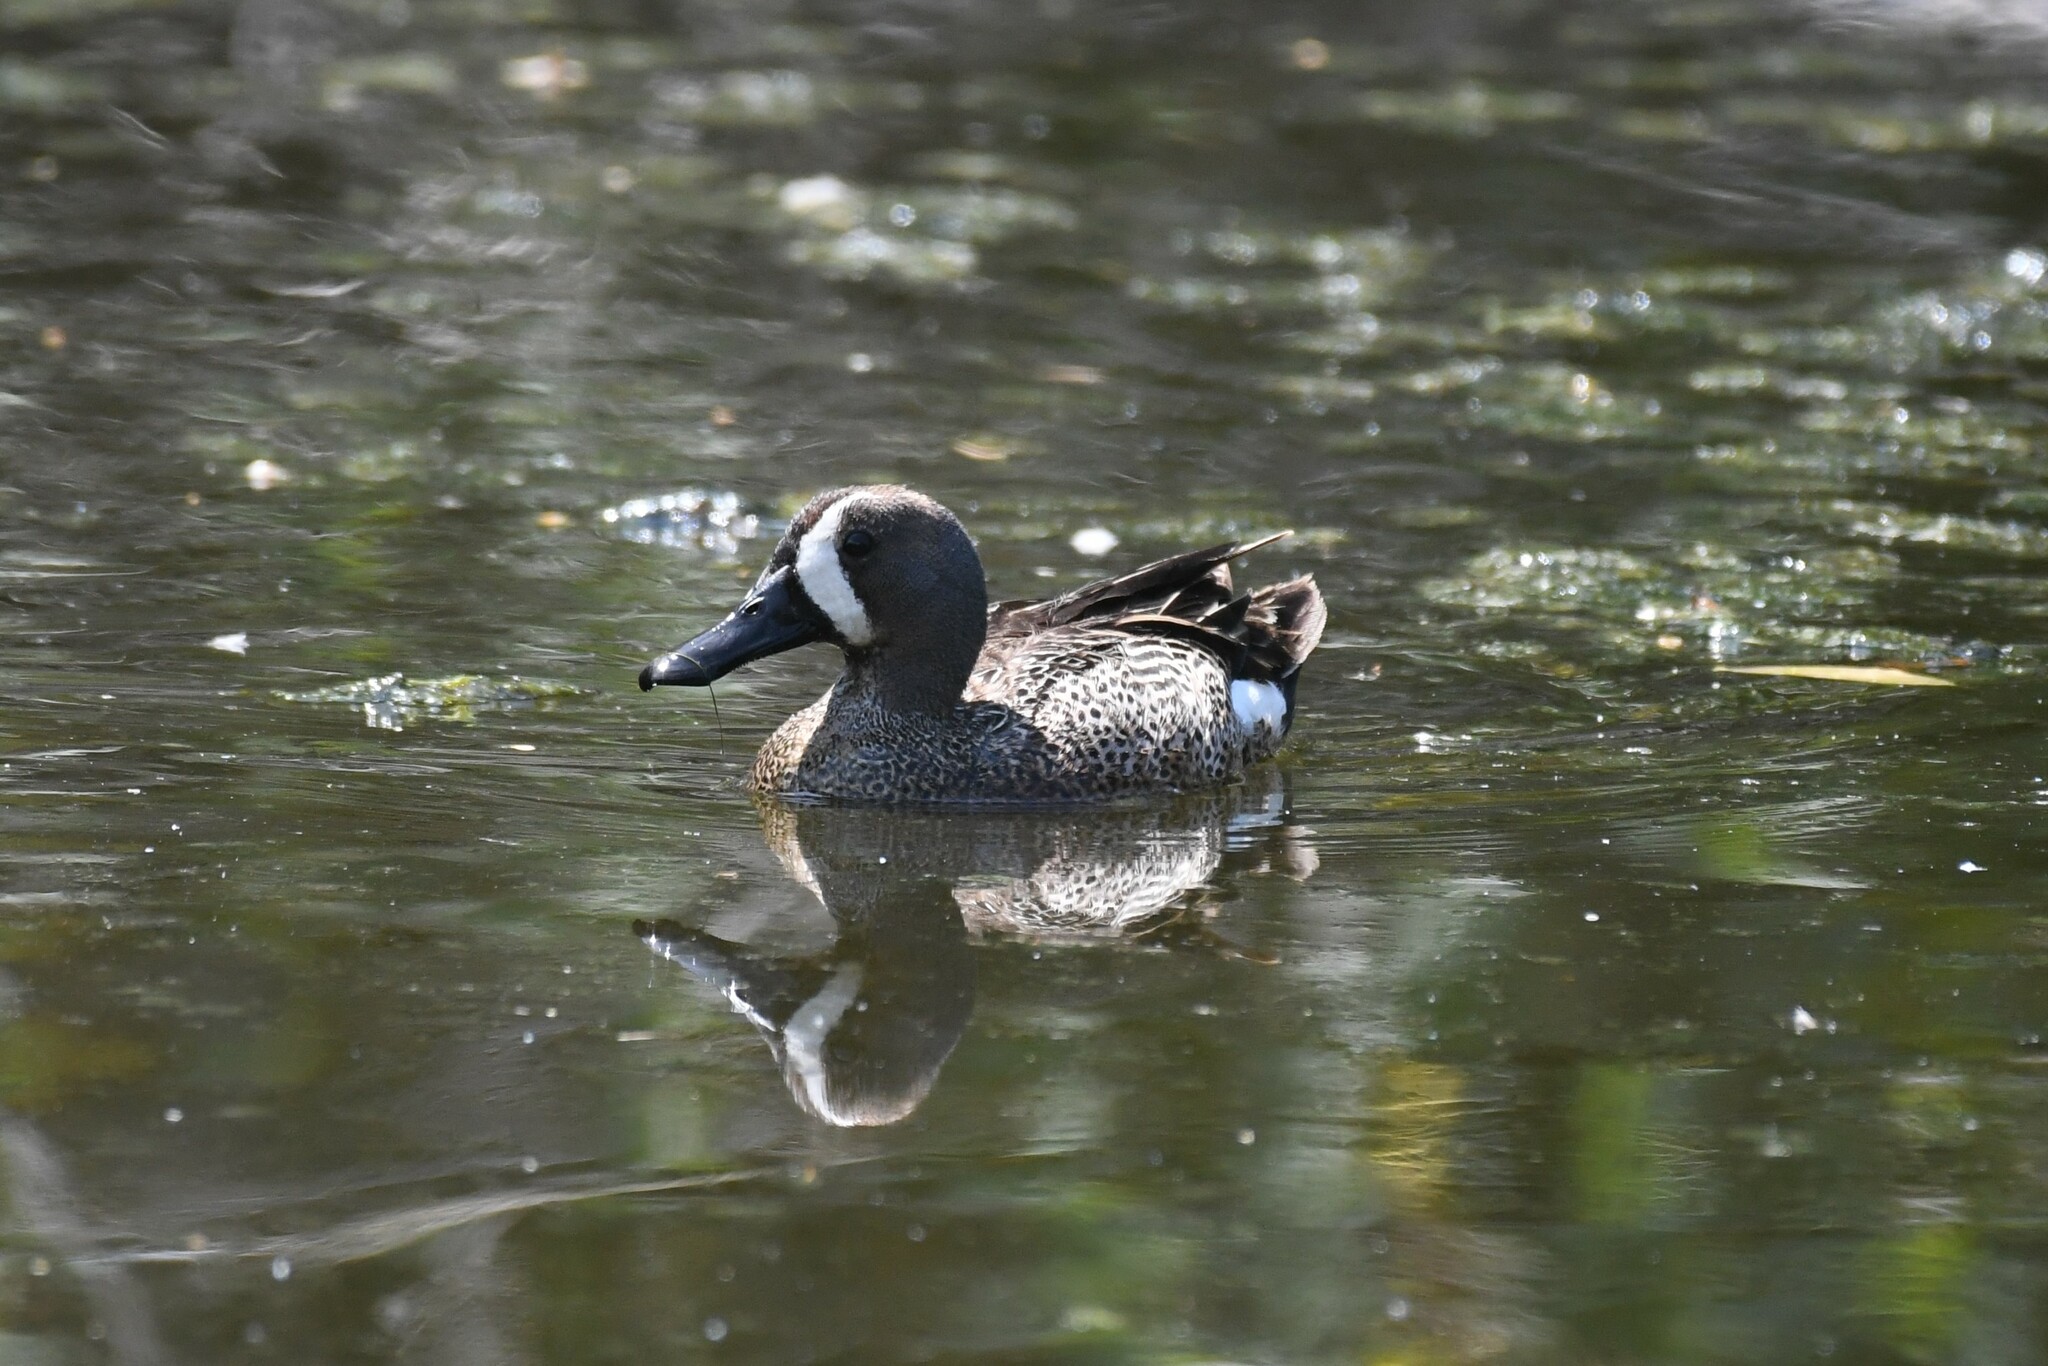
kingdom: Animalia
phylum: Chordata
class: Aves
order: Anseriformes
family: Anatidae
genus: Spatula
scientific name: Spatula discors
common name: Blue-winged teal
